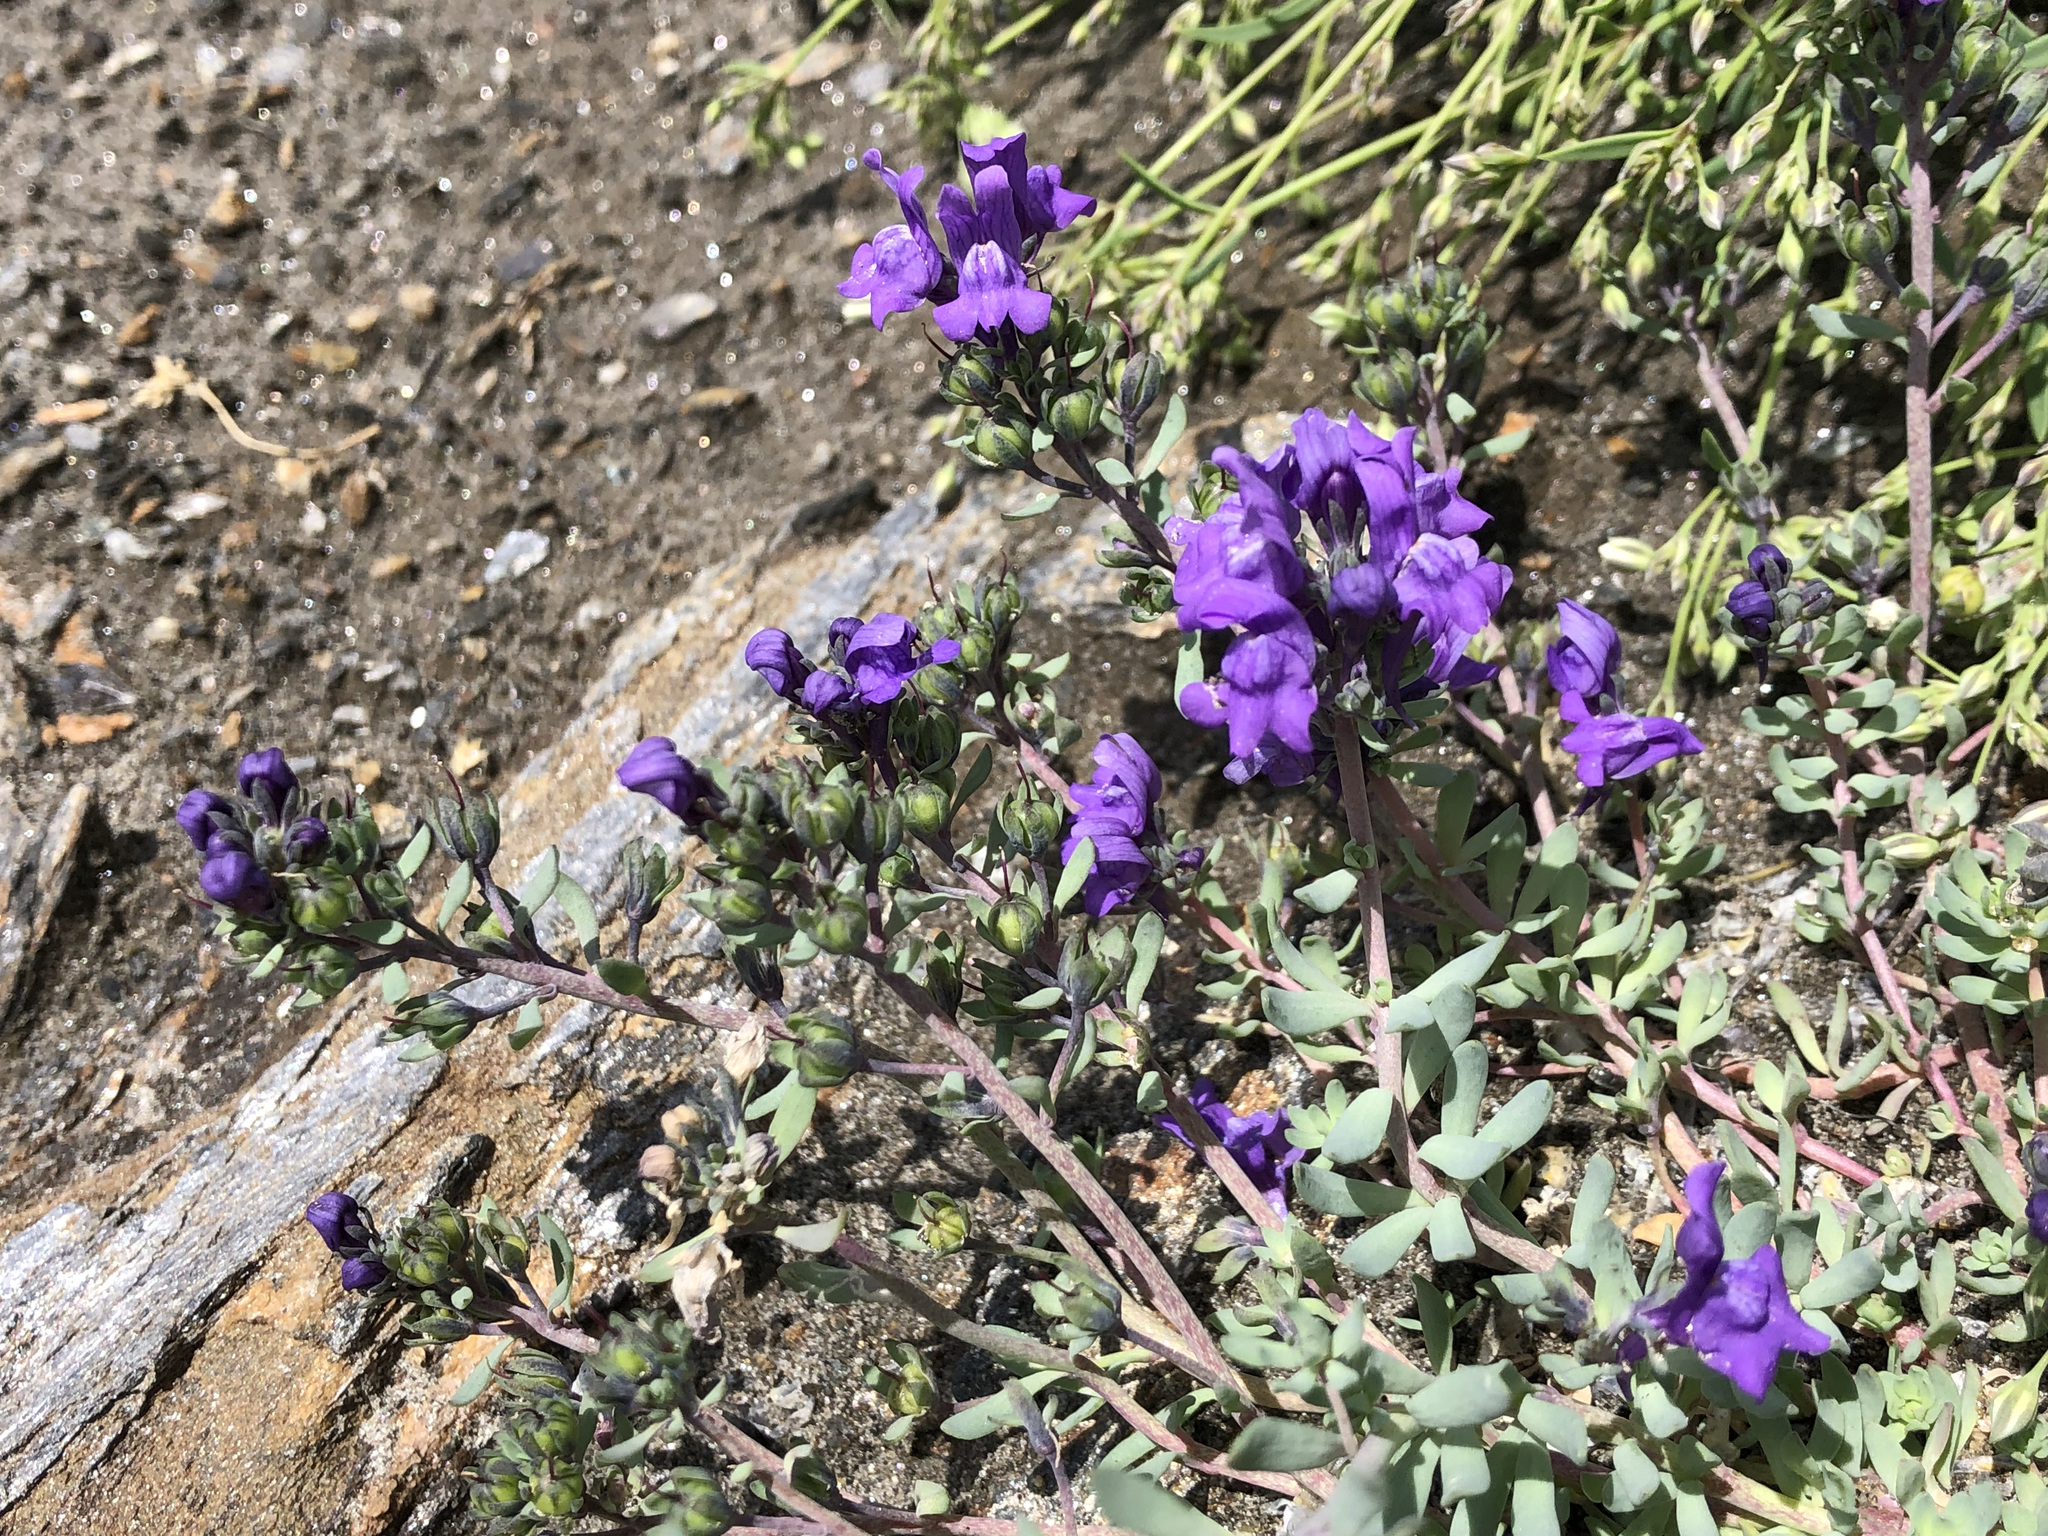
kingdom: Plantae
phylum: Tracheophyta
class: Magnoliopsida
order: Lamiales
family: Plantaginaceae
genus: Linaria
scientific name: Linaria alpina
